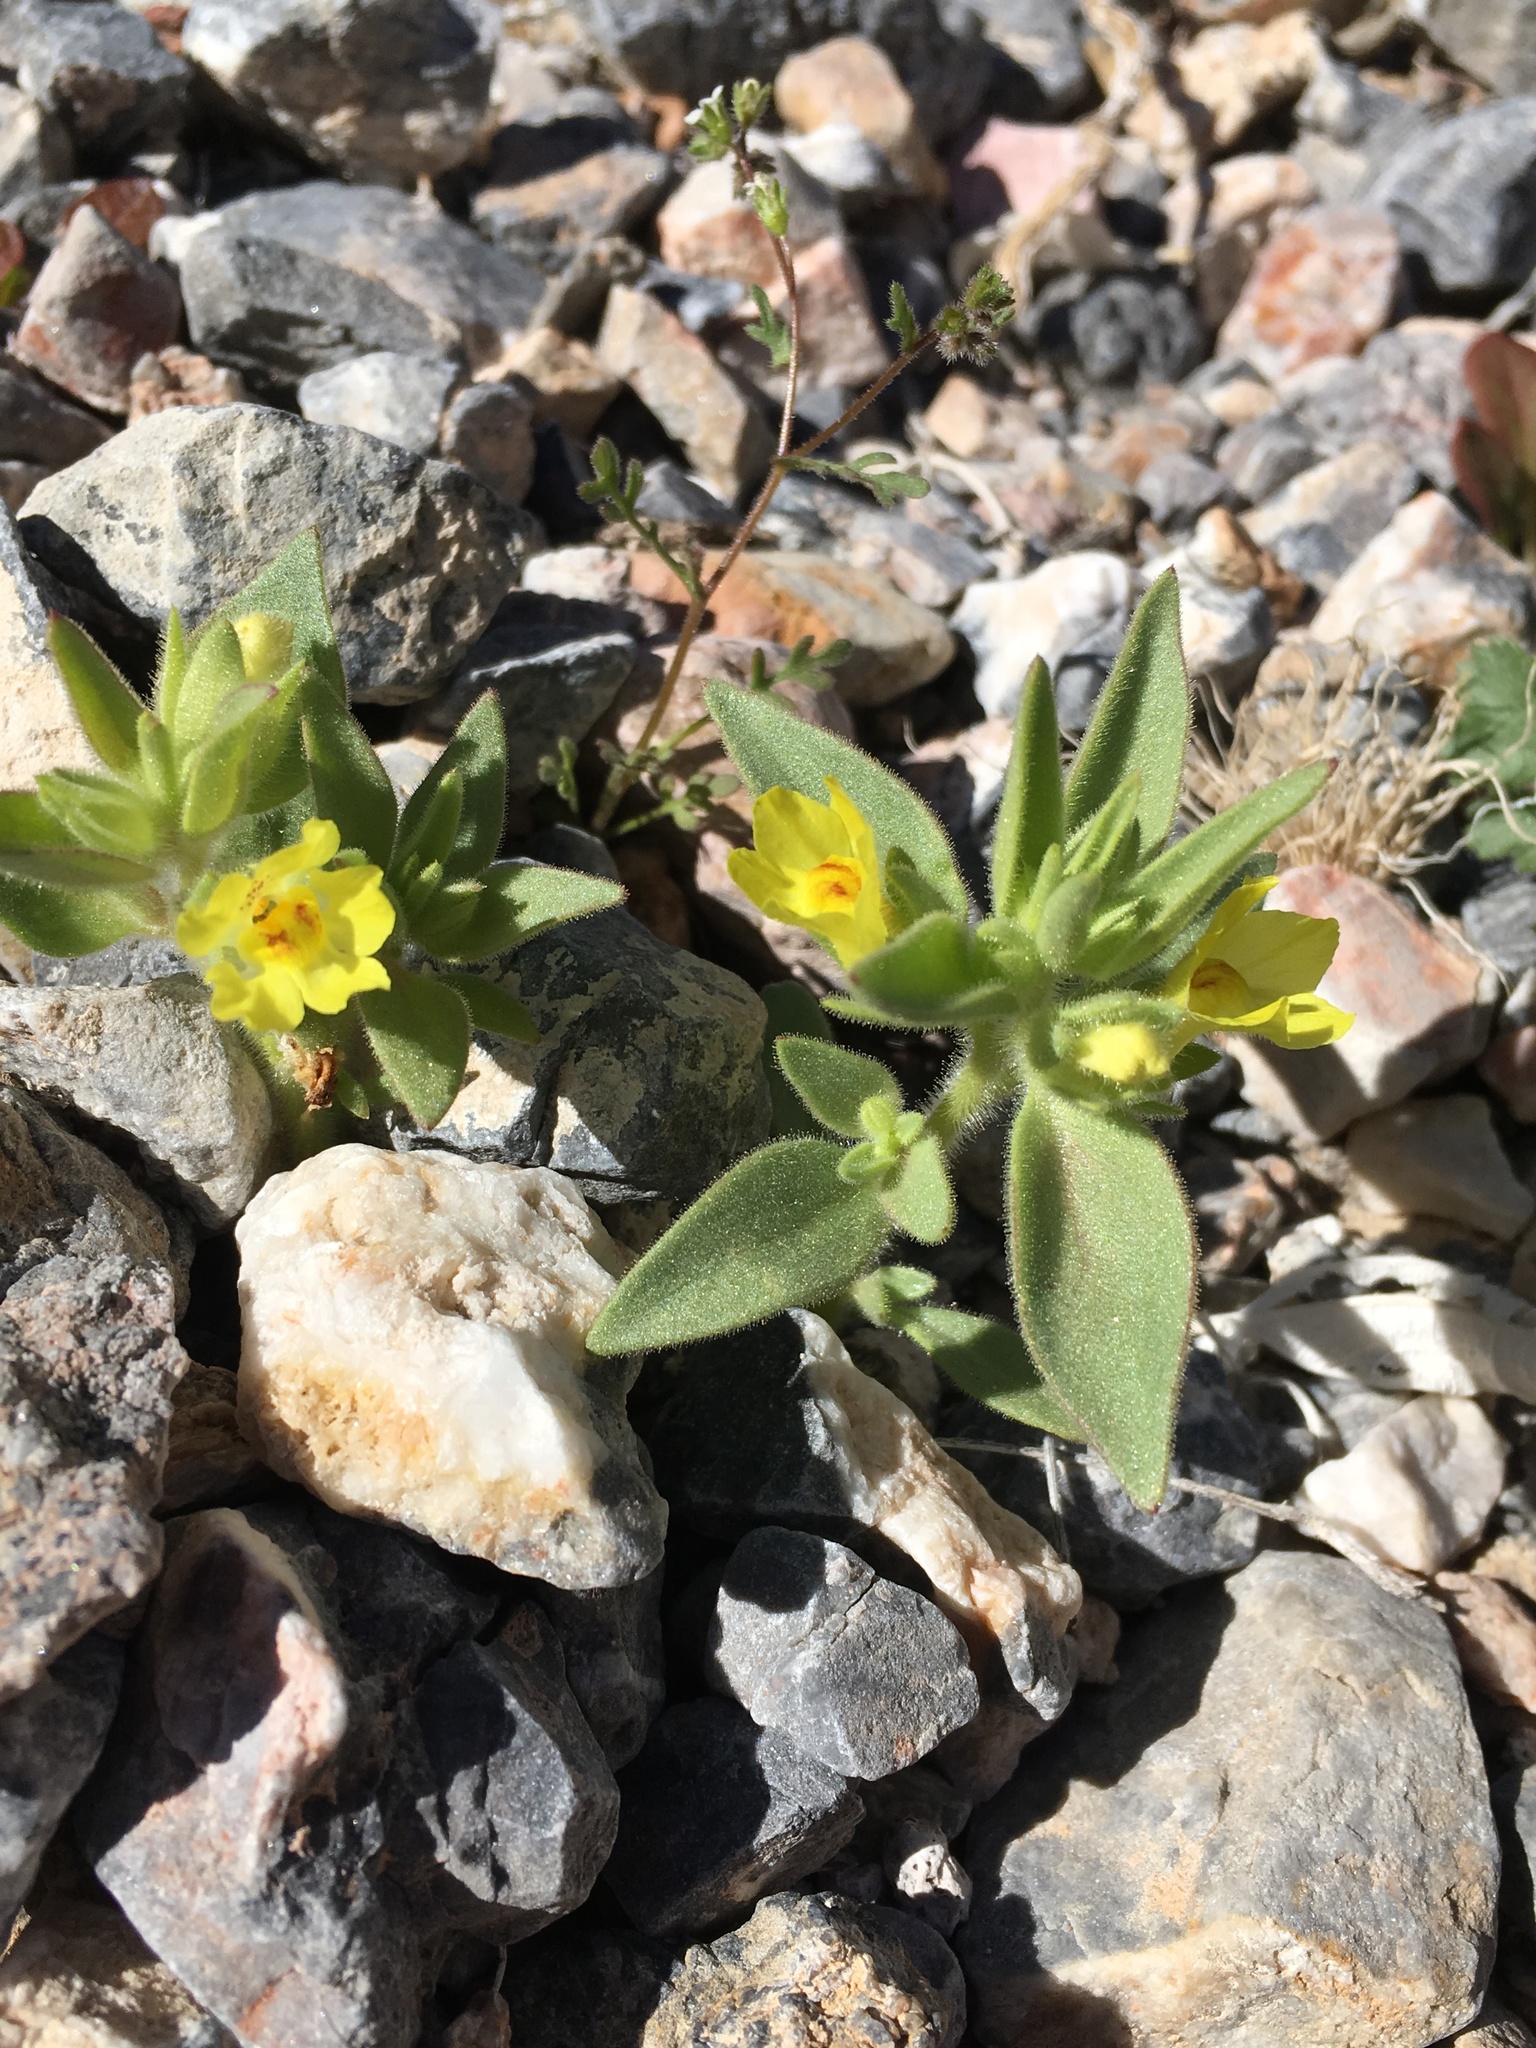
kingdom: Plantae
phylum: Tracheophyta
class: Magnoliopsida
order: Lamiales
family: Plantaginaceae
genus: Mohavea
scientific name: Mohavea breviflora
